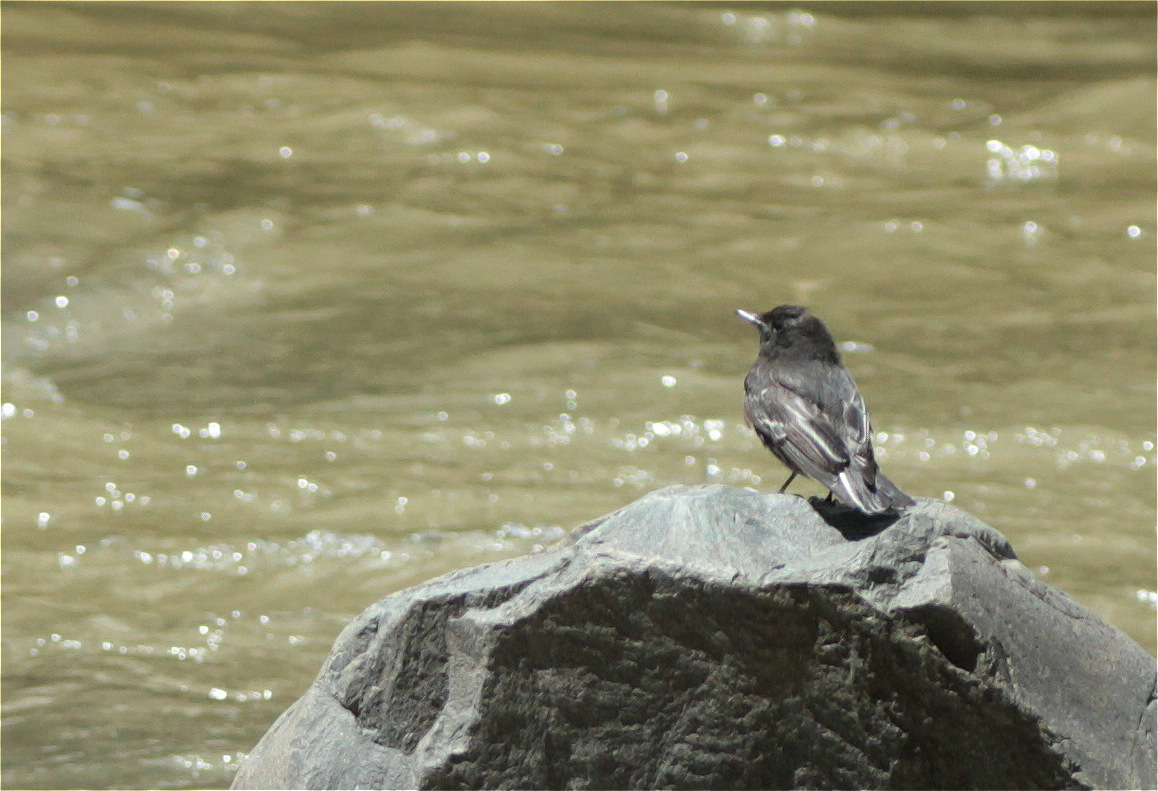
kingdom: Animalia
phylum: Chordata
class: Aves
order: Passeriformes
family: Tyrannidae
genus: Sayornis
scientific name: Sayornis nigricans
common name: Black phoebe
